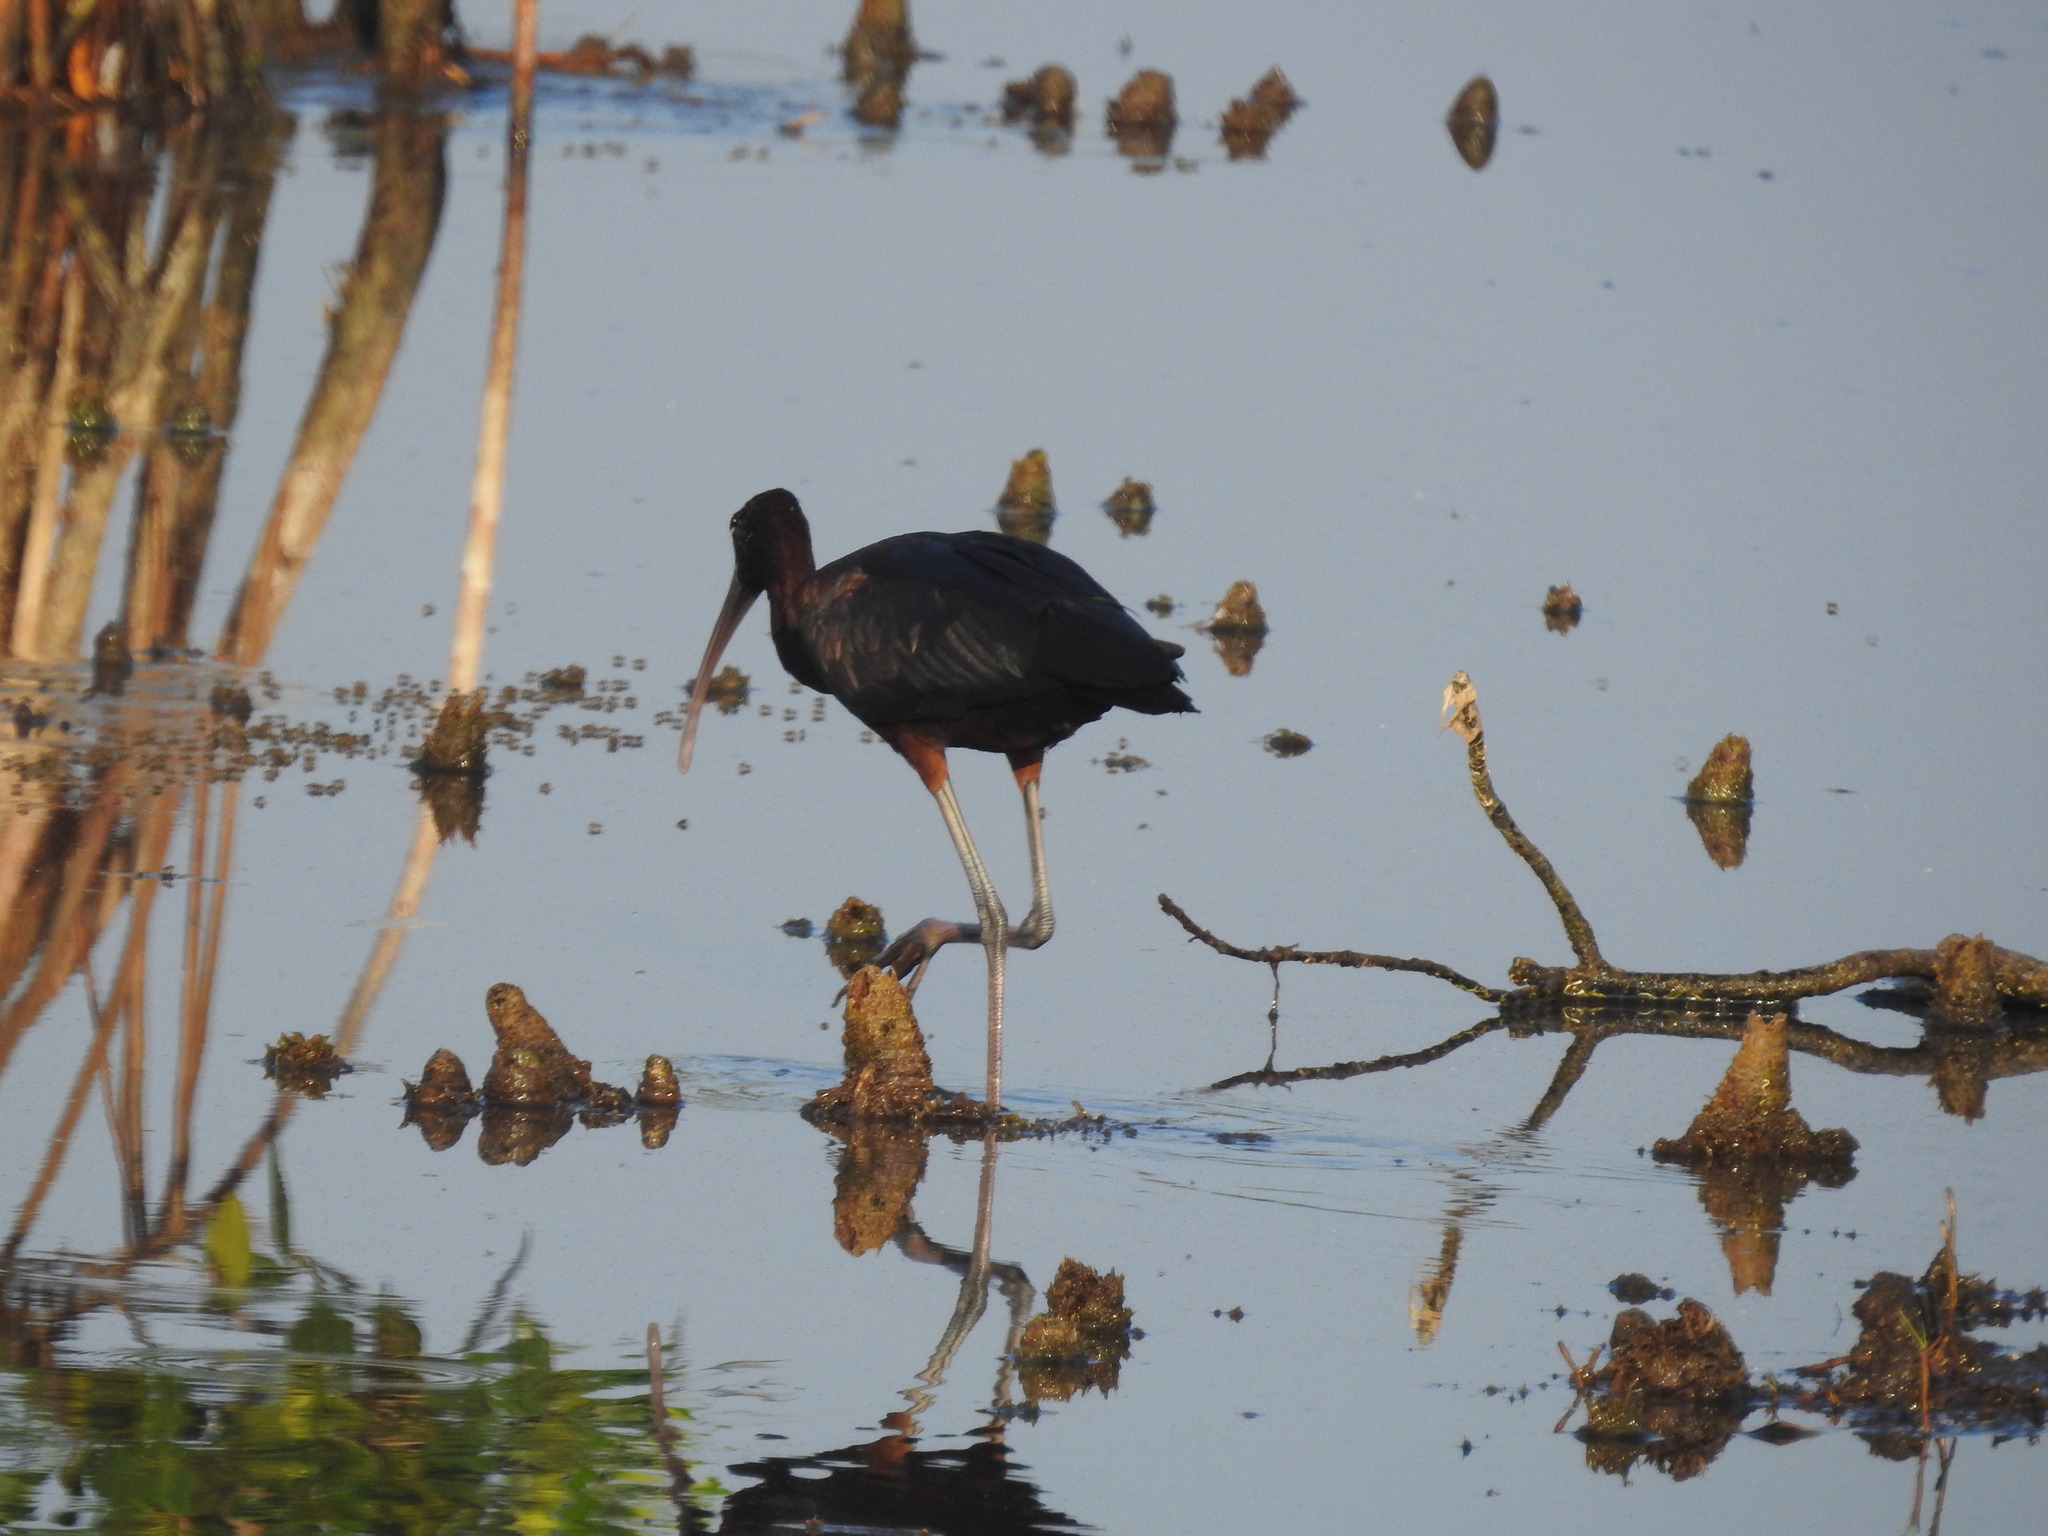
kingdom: Animalia
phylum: Chordata
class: Aves
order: Pelecaniformes
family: Threskiornithidae
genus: Plegadis
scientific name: Plegadis falcinellus
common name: Glossy ibis
